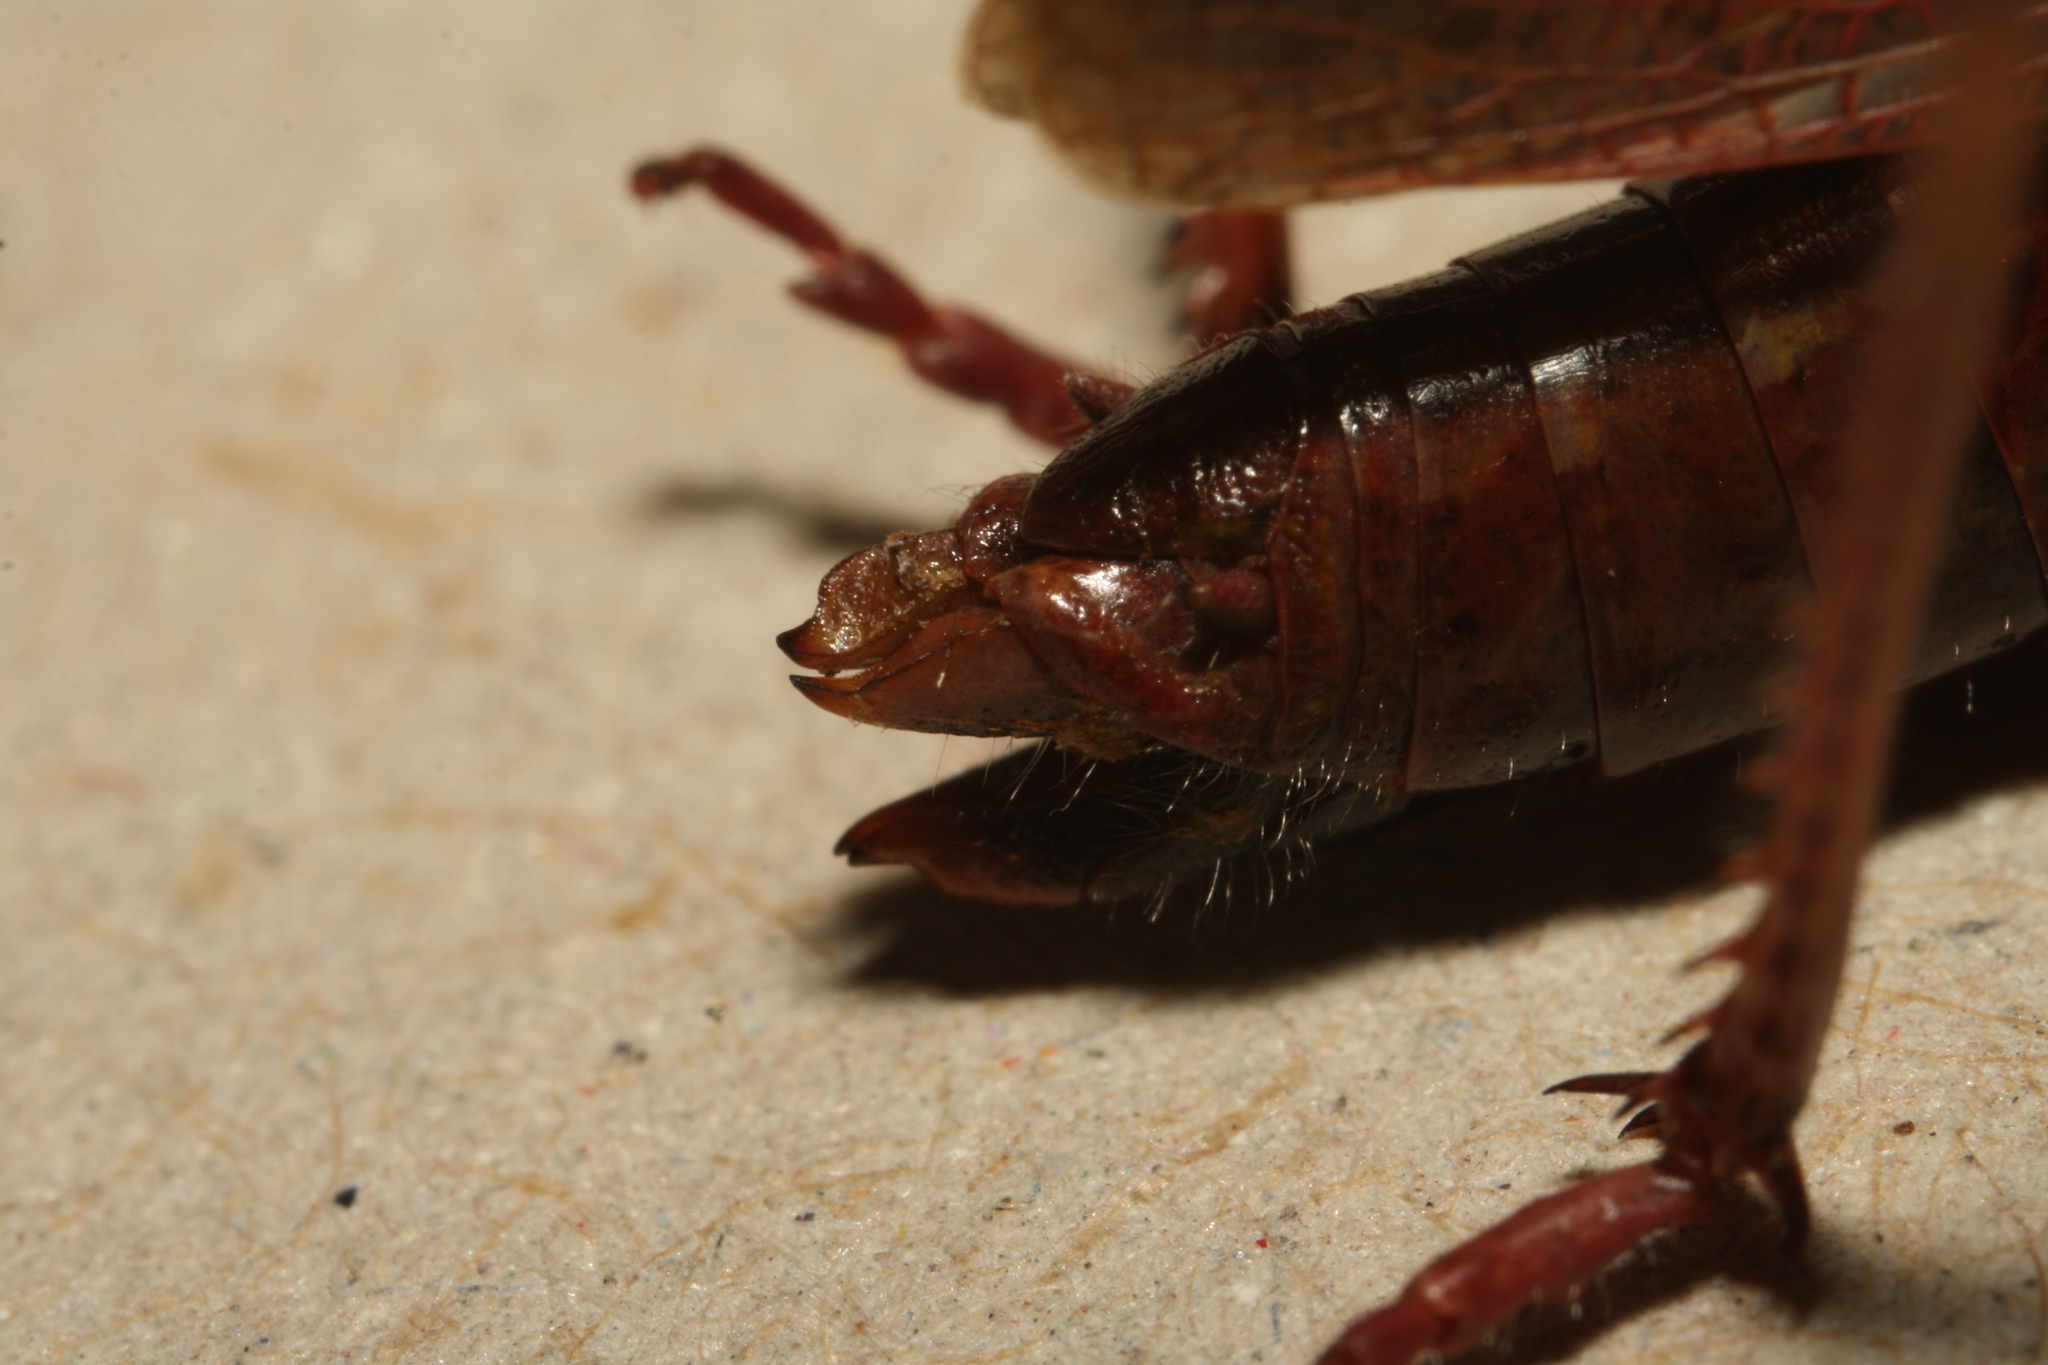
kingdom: Animalia
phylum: Arthropoda
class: Insecta
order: Orthoptera
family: Acrididae
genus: Omocestus
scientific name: Omocestus viridulus
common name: Common green grasshopper
